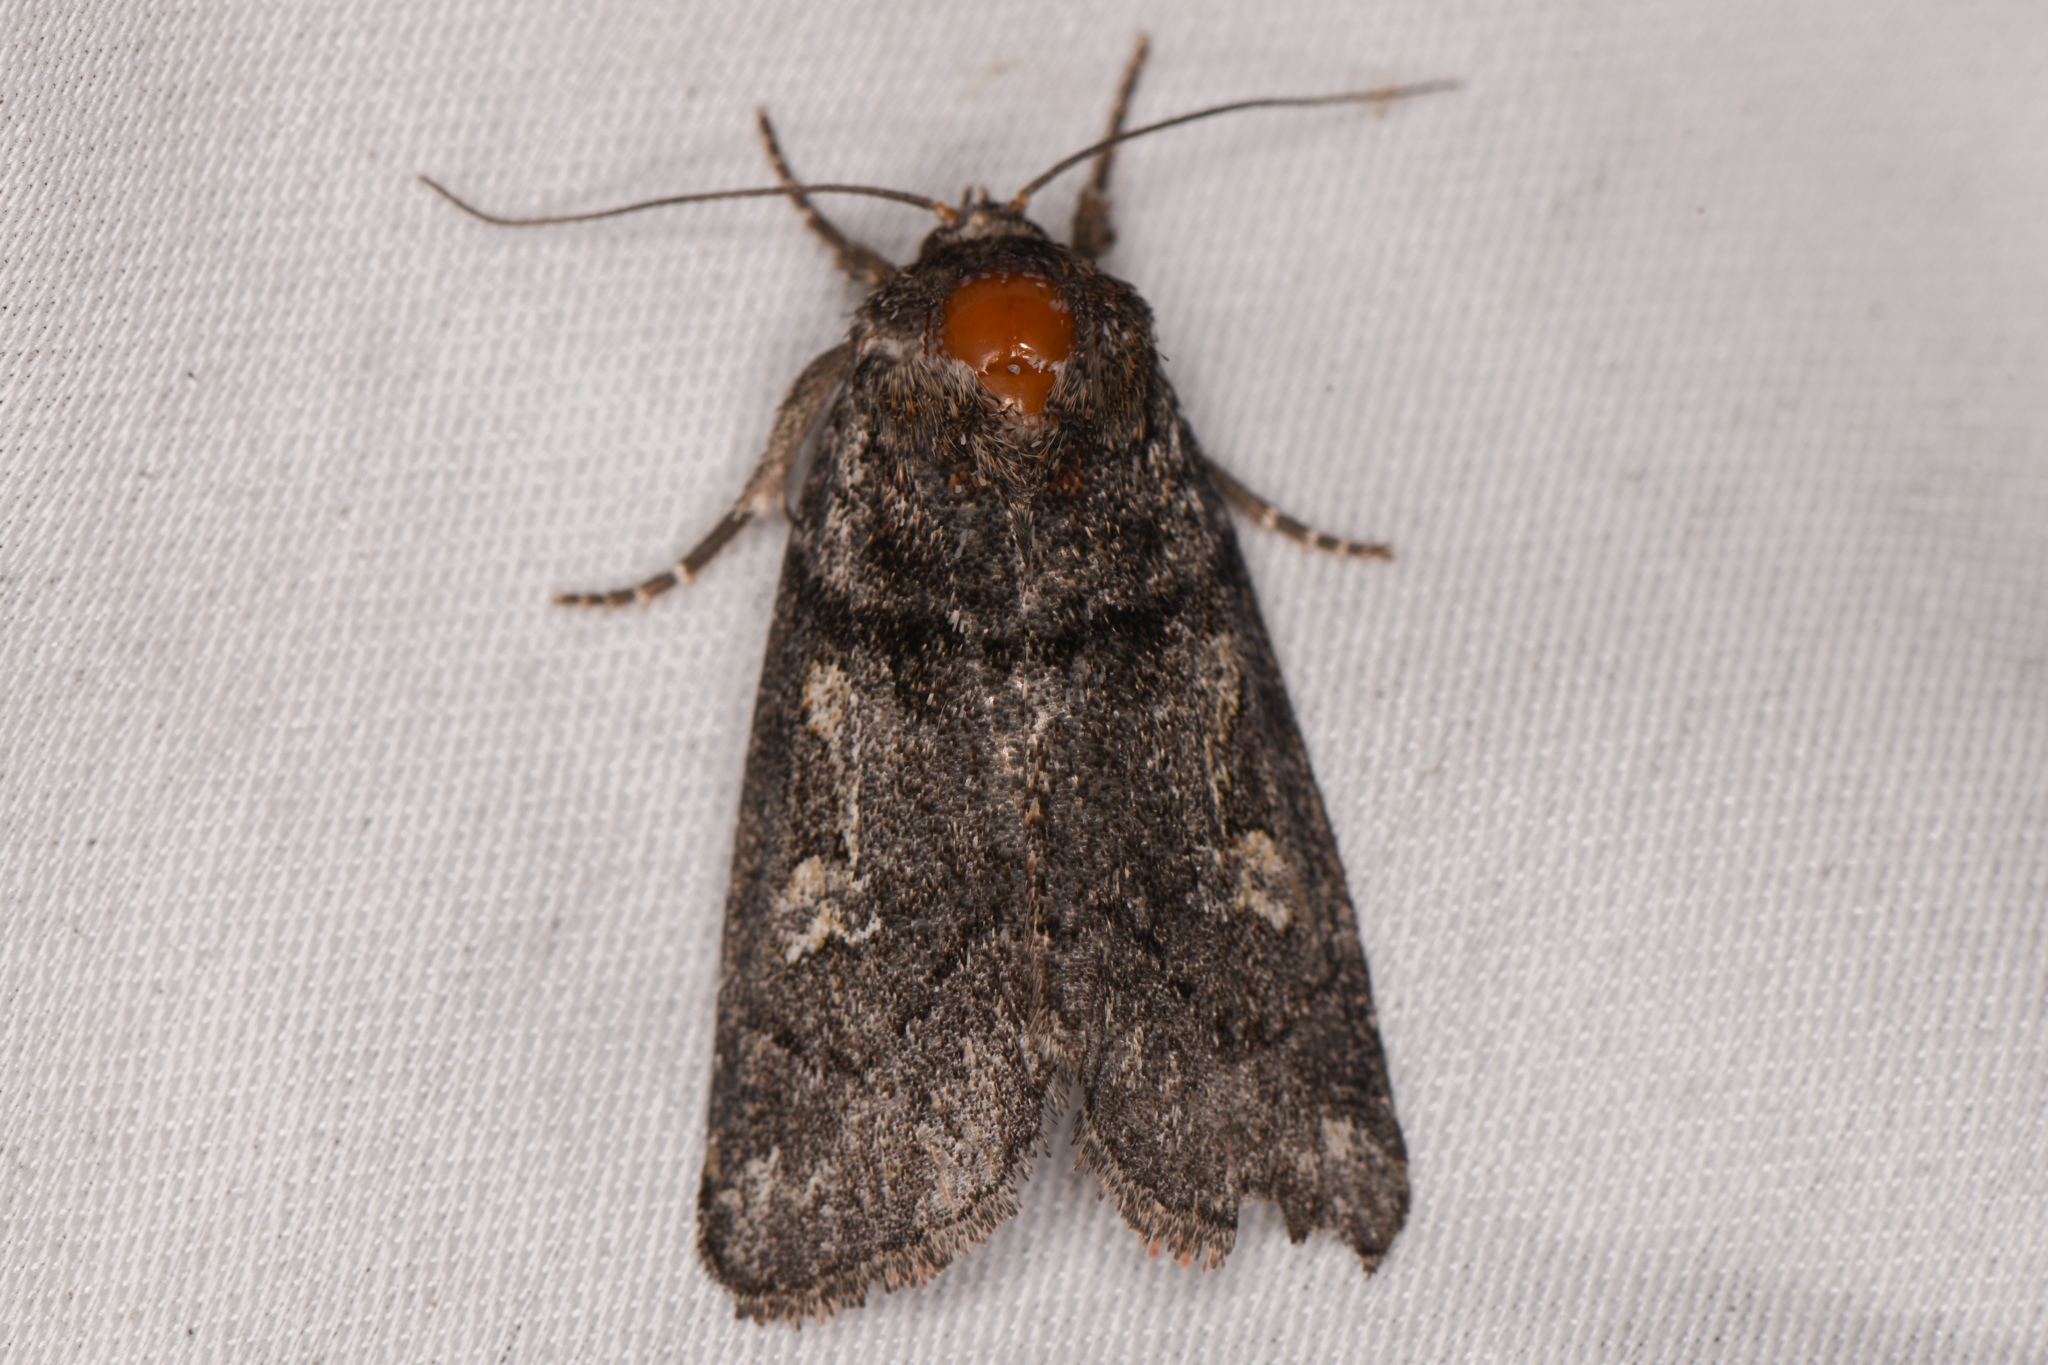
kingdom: Animalia
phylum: Arthropoda
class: Insecta
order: Lepidoptera
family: Noctuidae
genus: Cosmia
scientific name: Cosmia praeacuta
